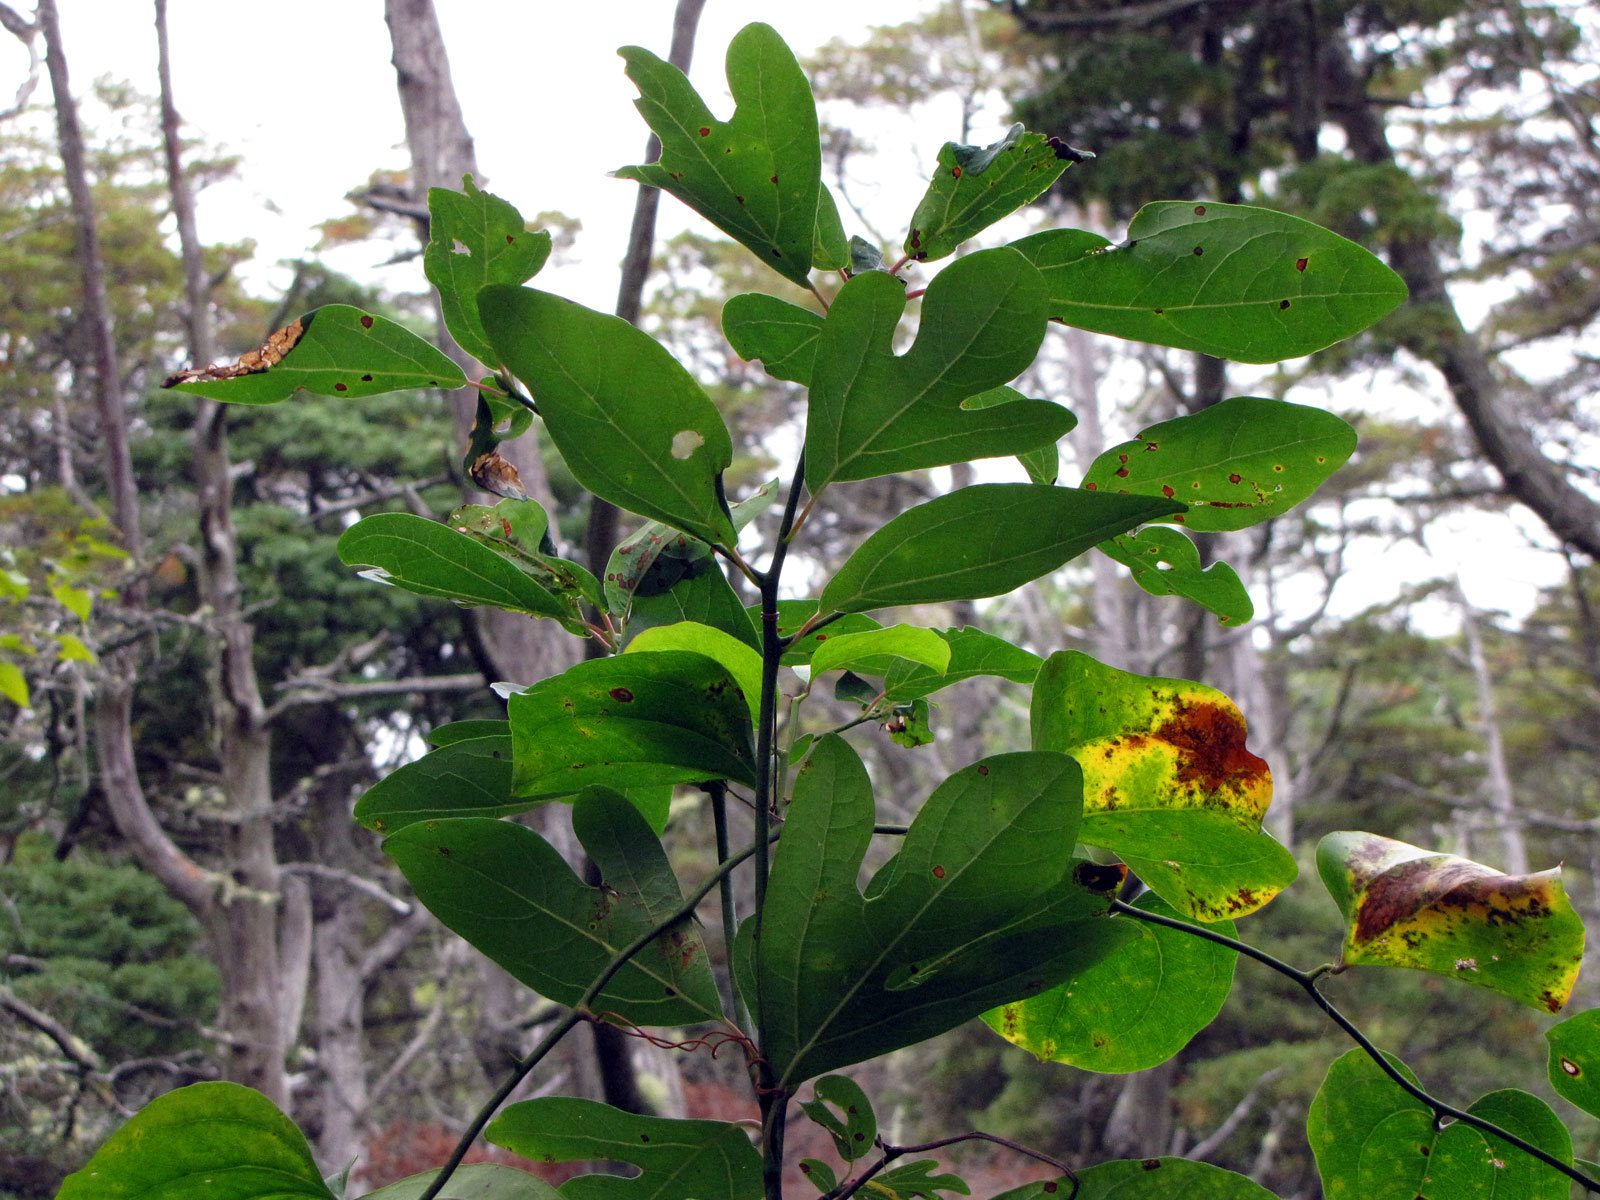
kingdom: Plantae
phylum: Tracheophyta
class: Magnoliopsida
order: Laurales
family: Lauraceae
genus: Sassafras
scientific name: Sassafras albidum
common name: Sassafras
